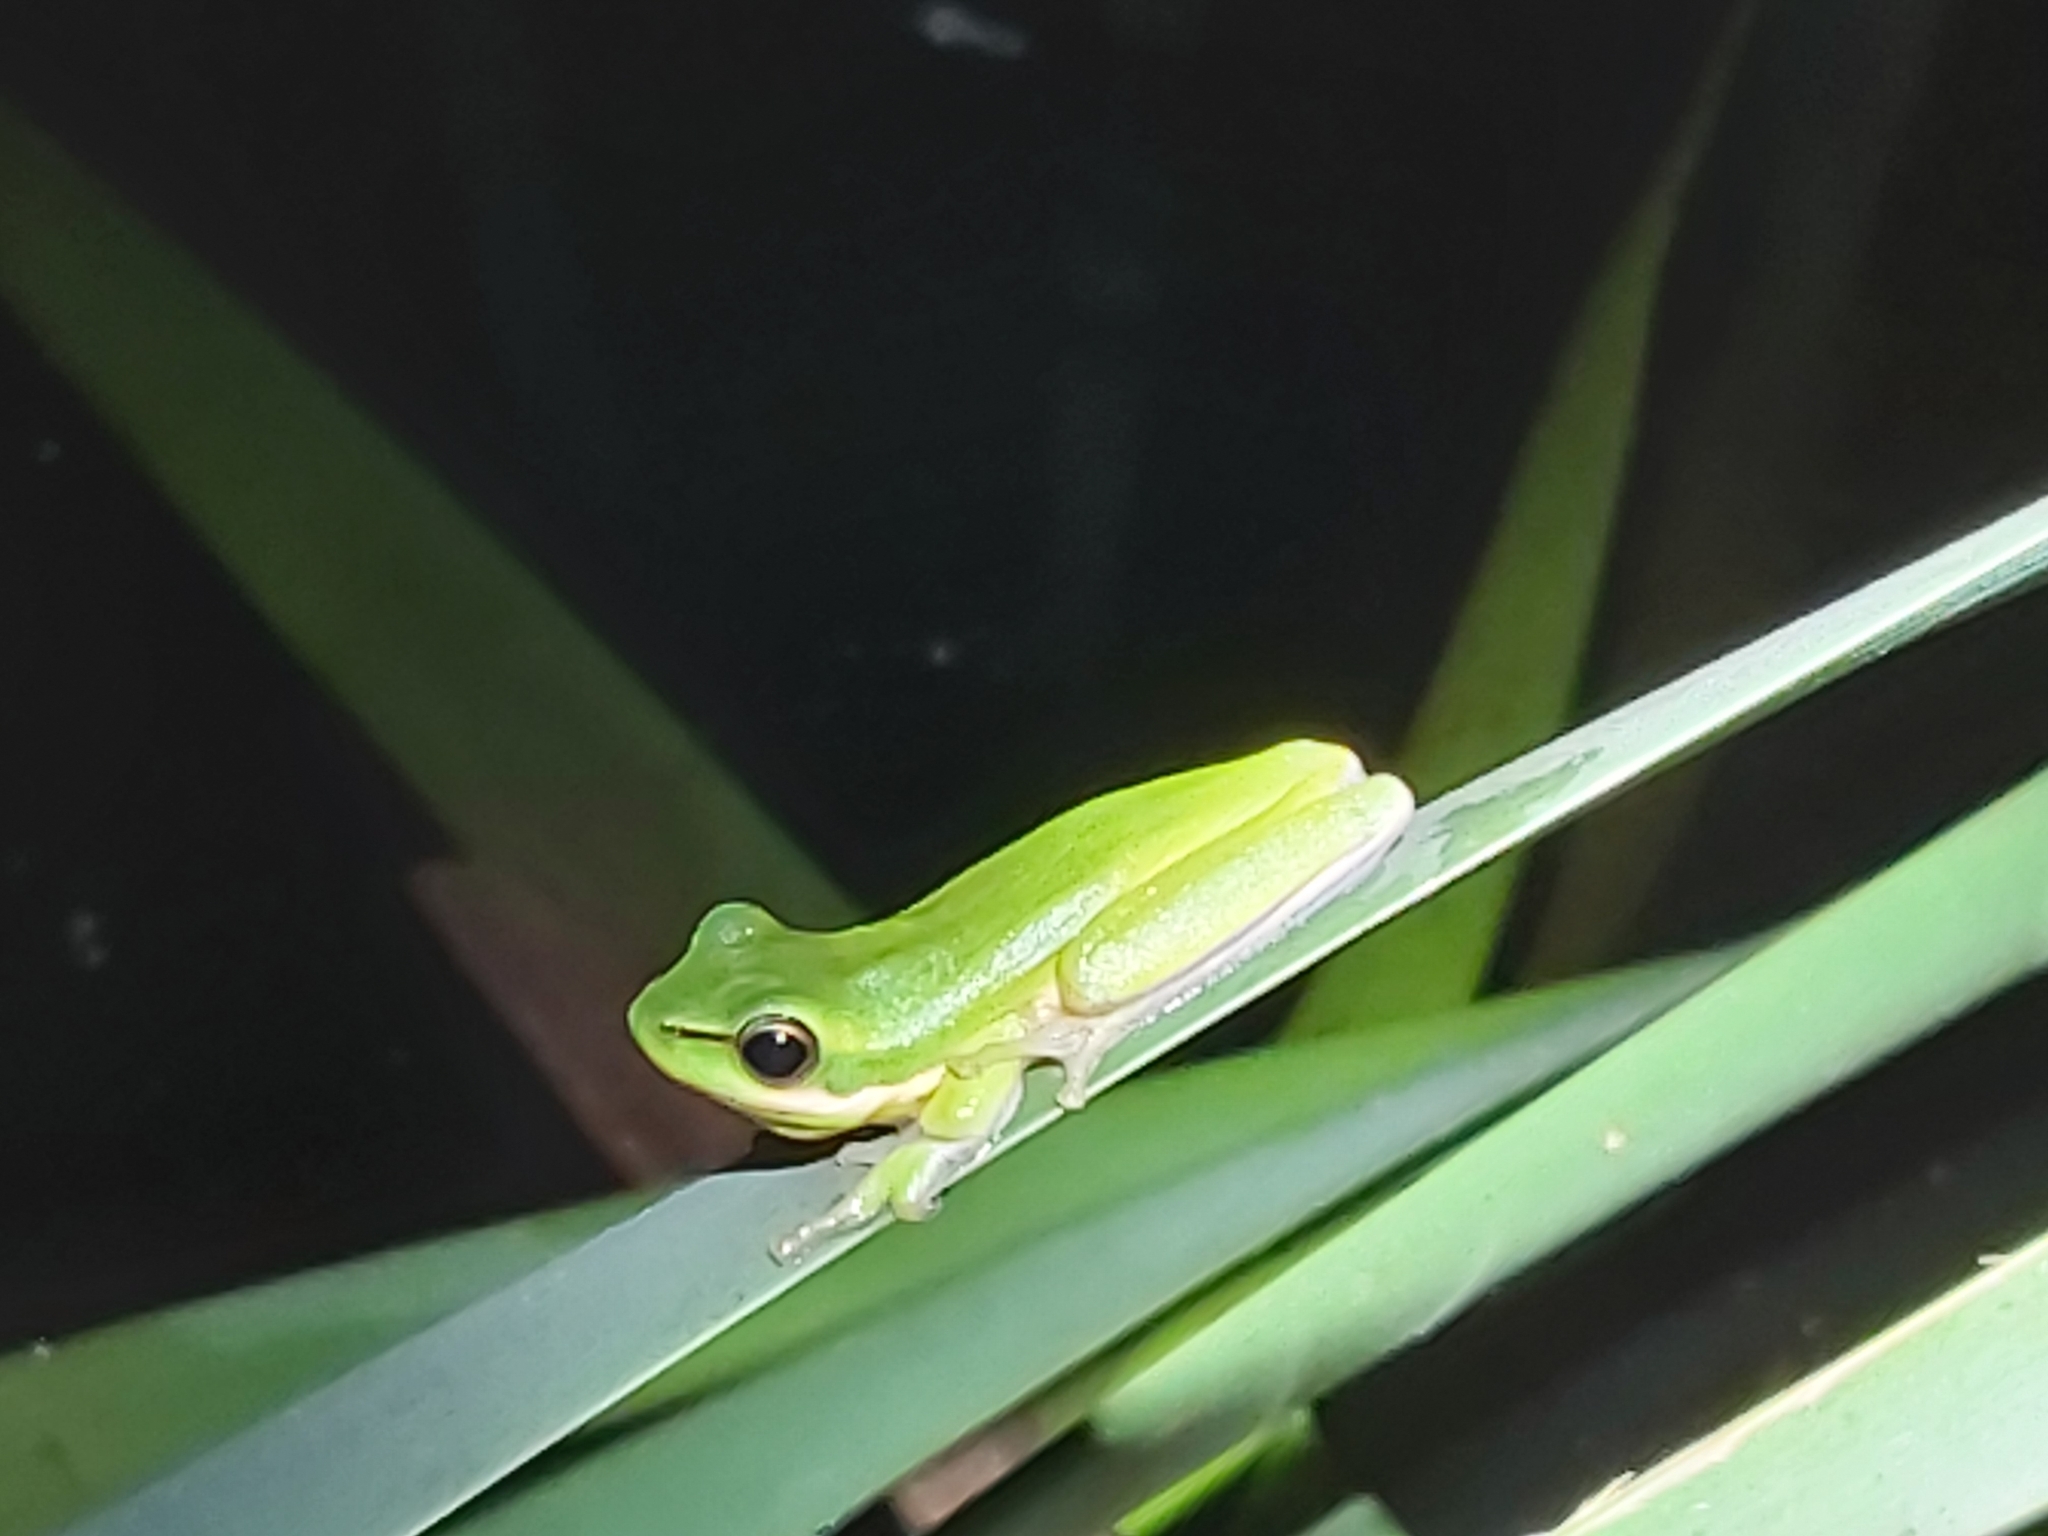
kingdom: Animalia
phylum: Chordata
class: Amphibia
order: Anura
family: Pelodryadidae
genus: Litoria
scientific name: Litoria fallax
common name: Eastern dwarf treefrog
